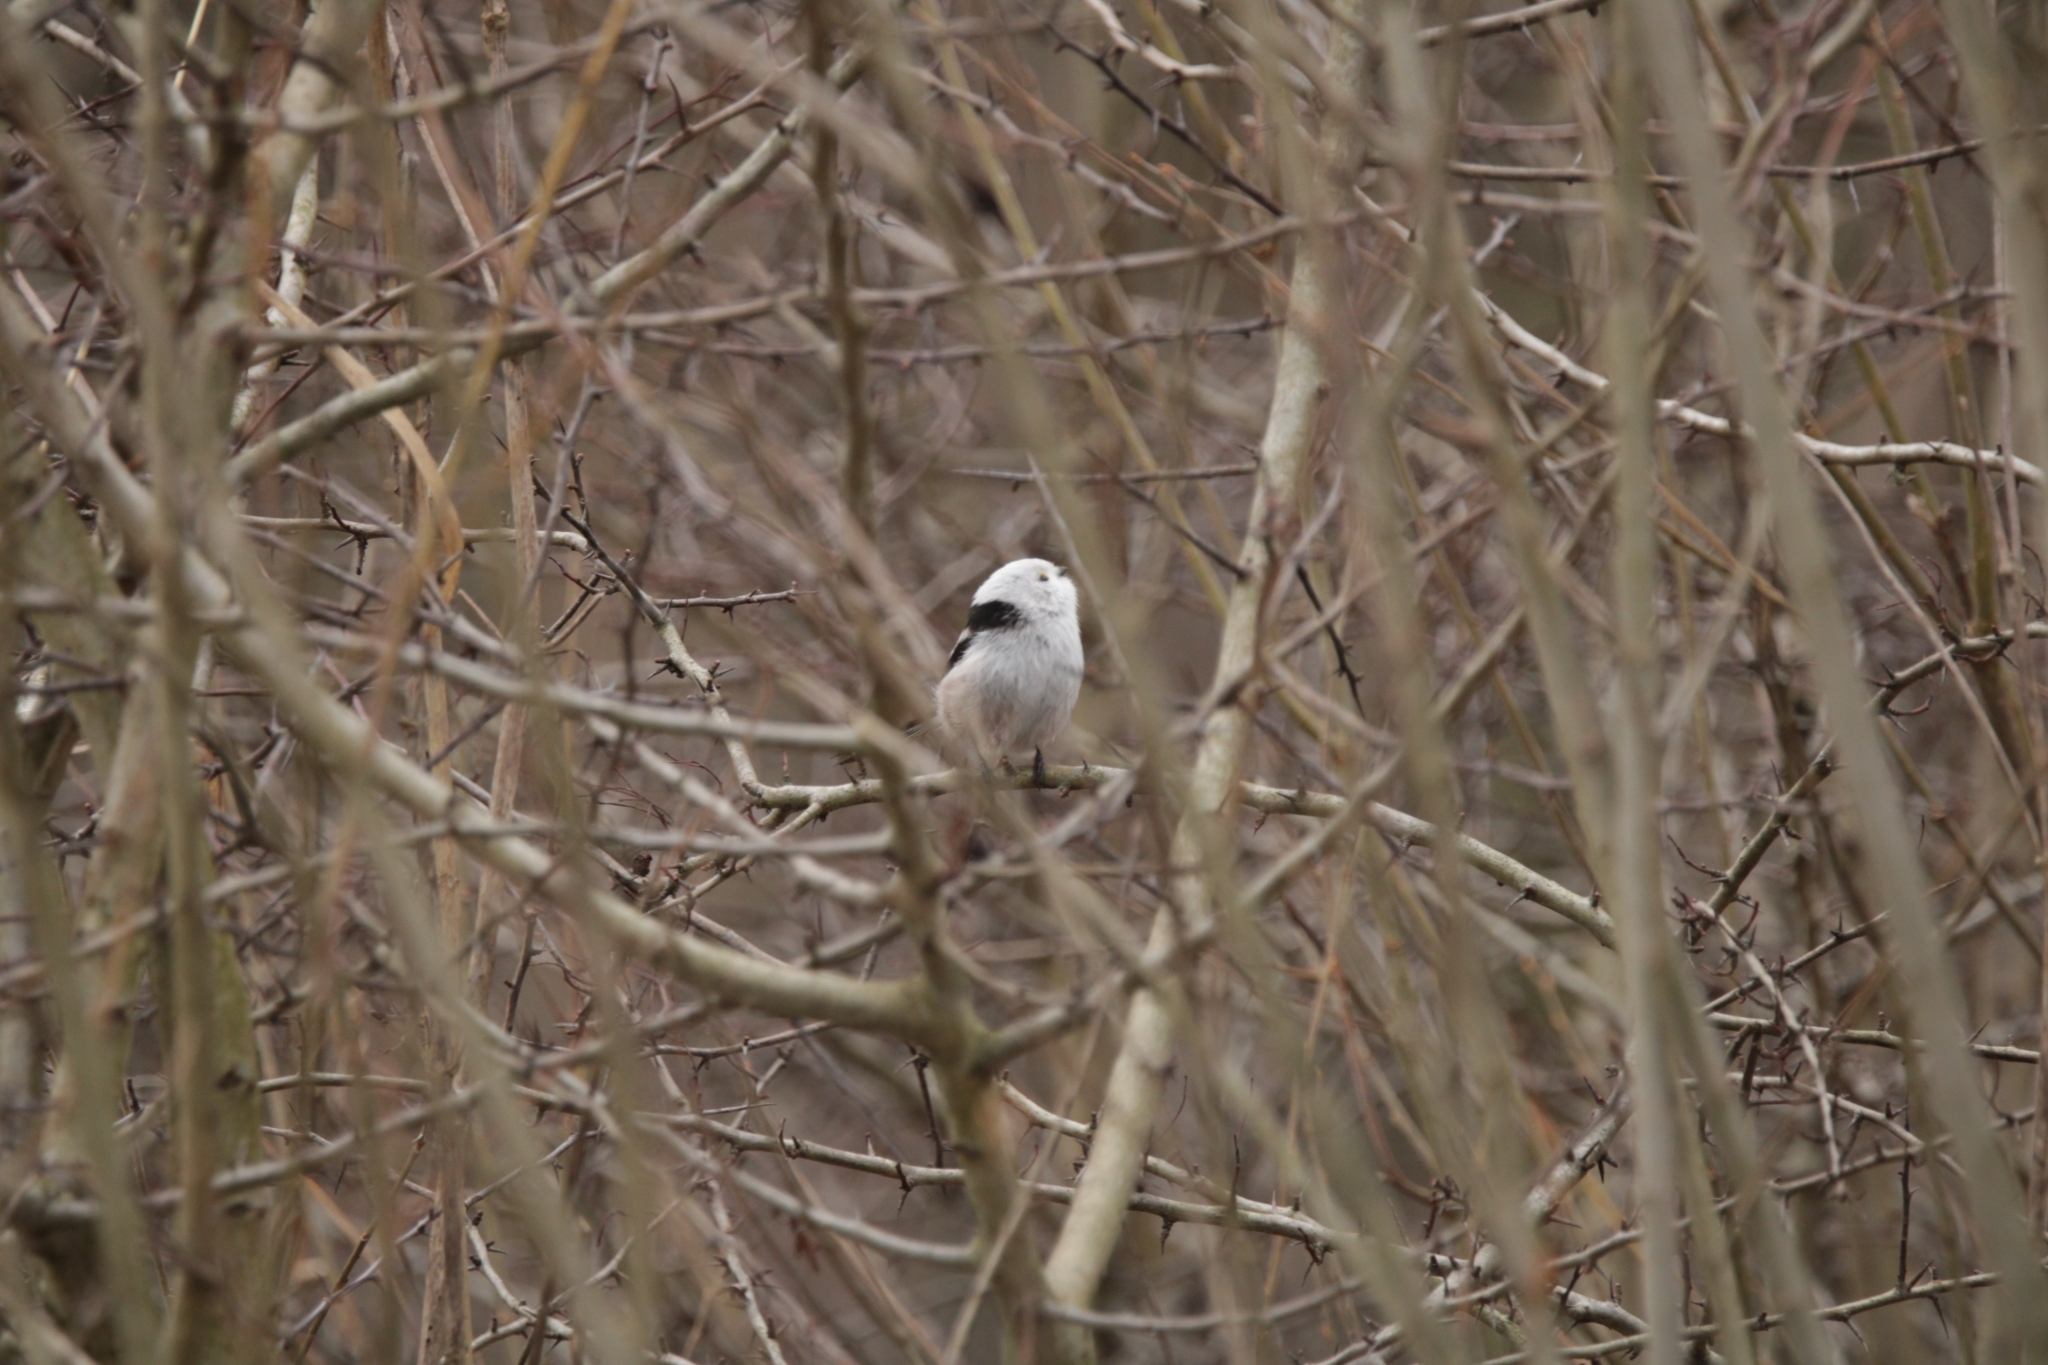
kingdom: Animalia
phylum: Chordata
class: Aves
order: Passeriformes
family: Aegithalidae
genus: Aegithalos
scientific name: Aegithalos caudatus
